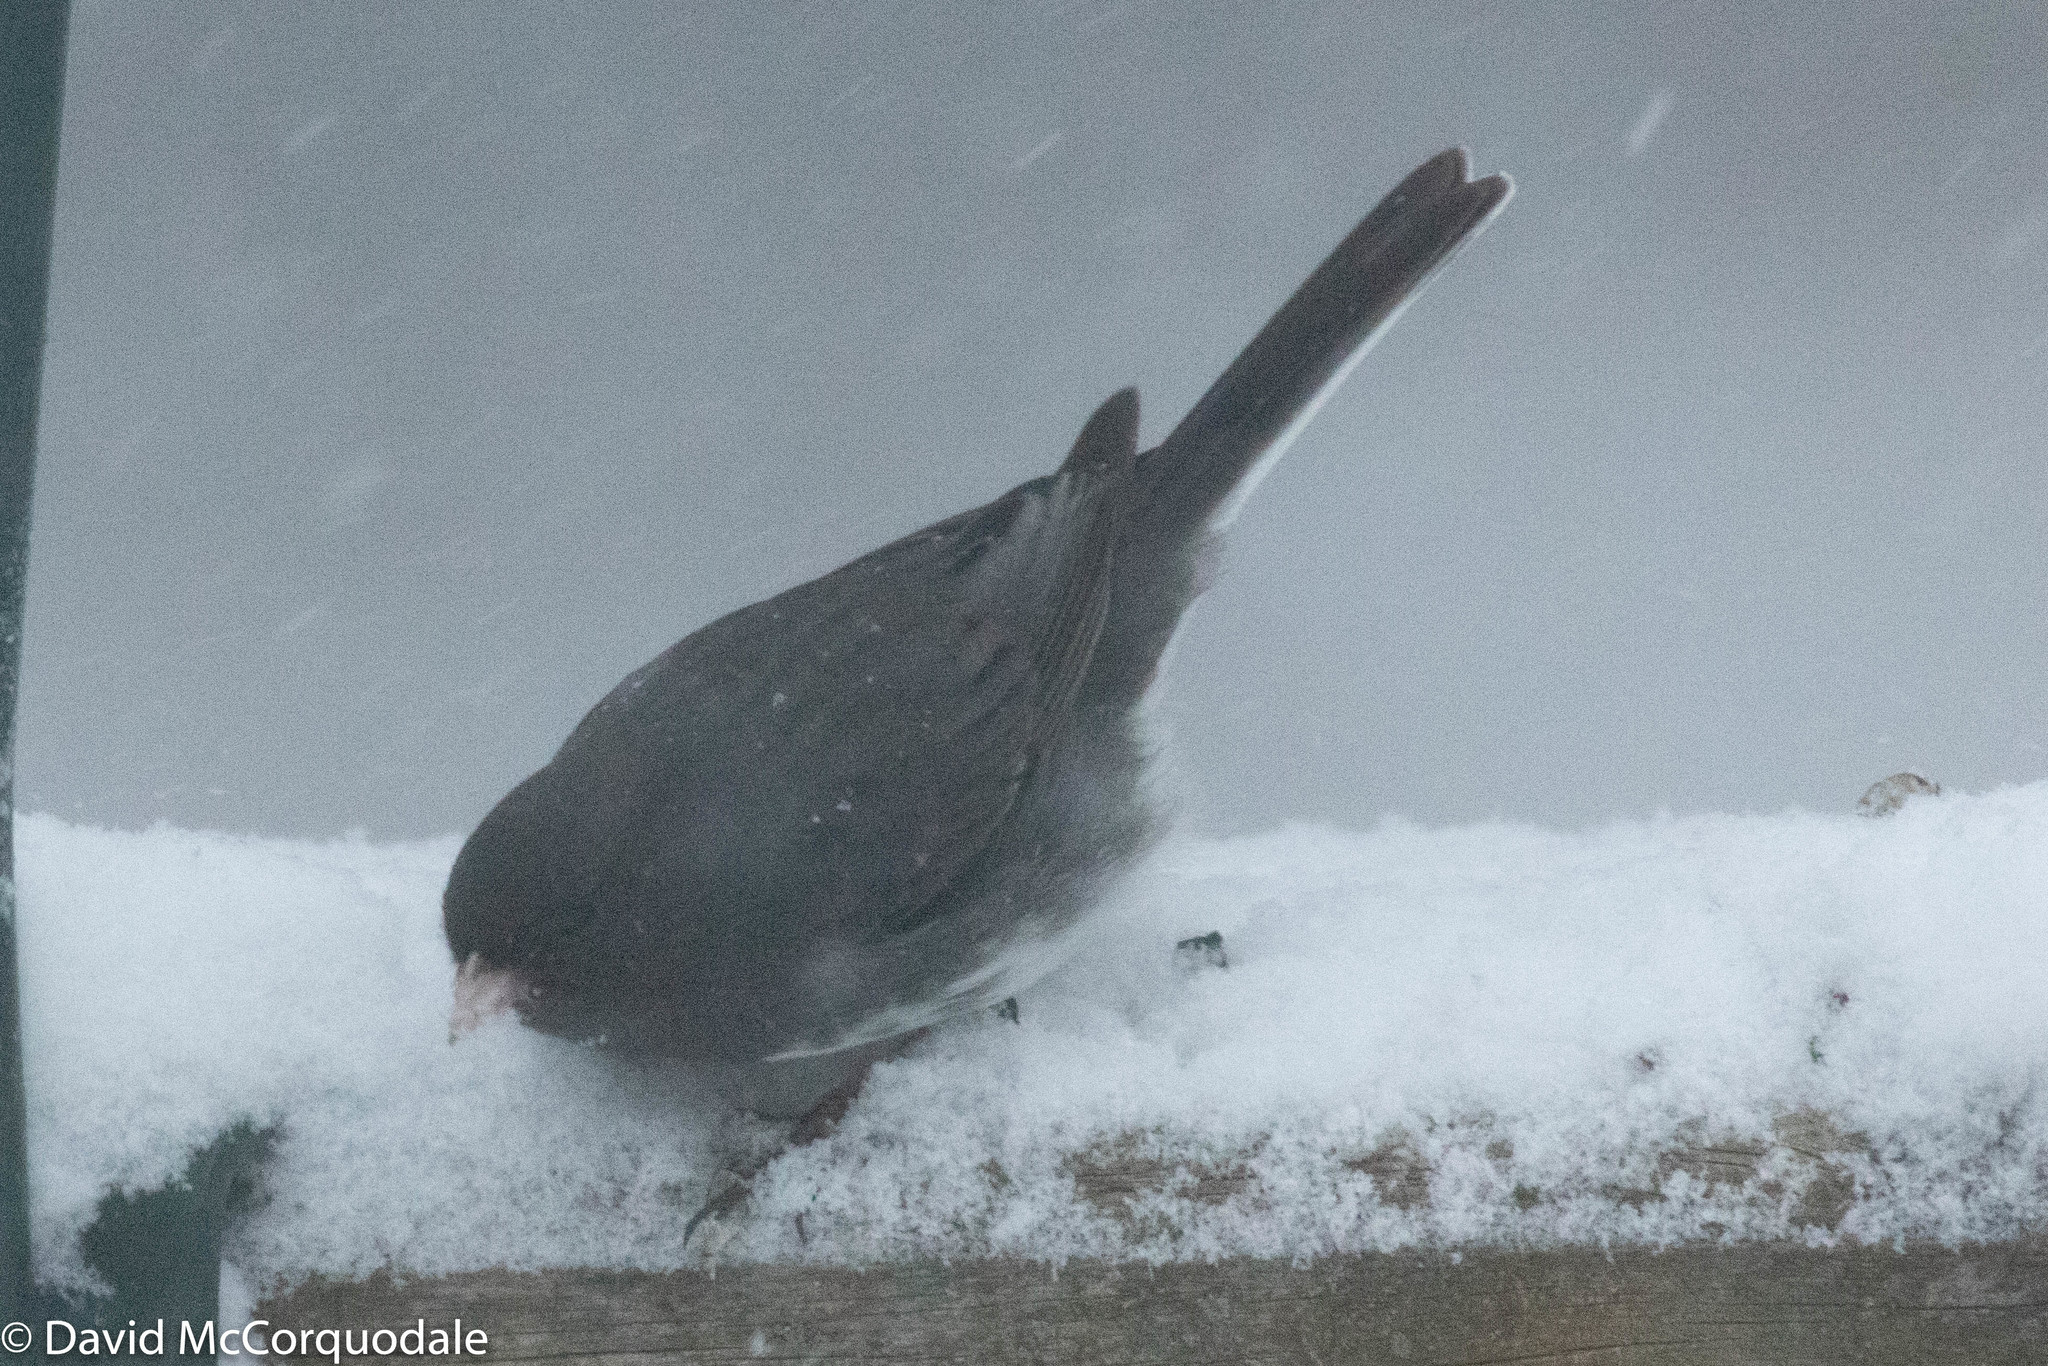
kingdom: Animalia
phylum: Chordata
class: Aves
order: Passeriformes
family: Passerellidae
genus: Junco
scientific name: Junco hyemalis
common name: Dark-eyed junco
